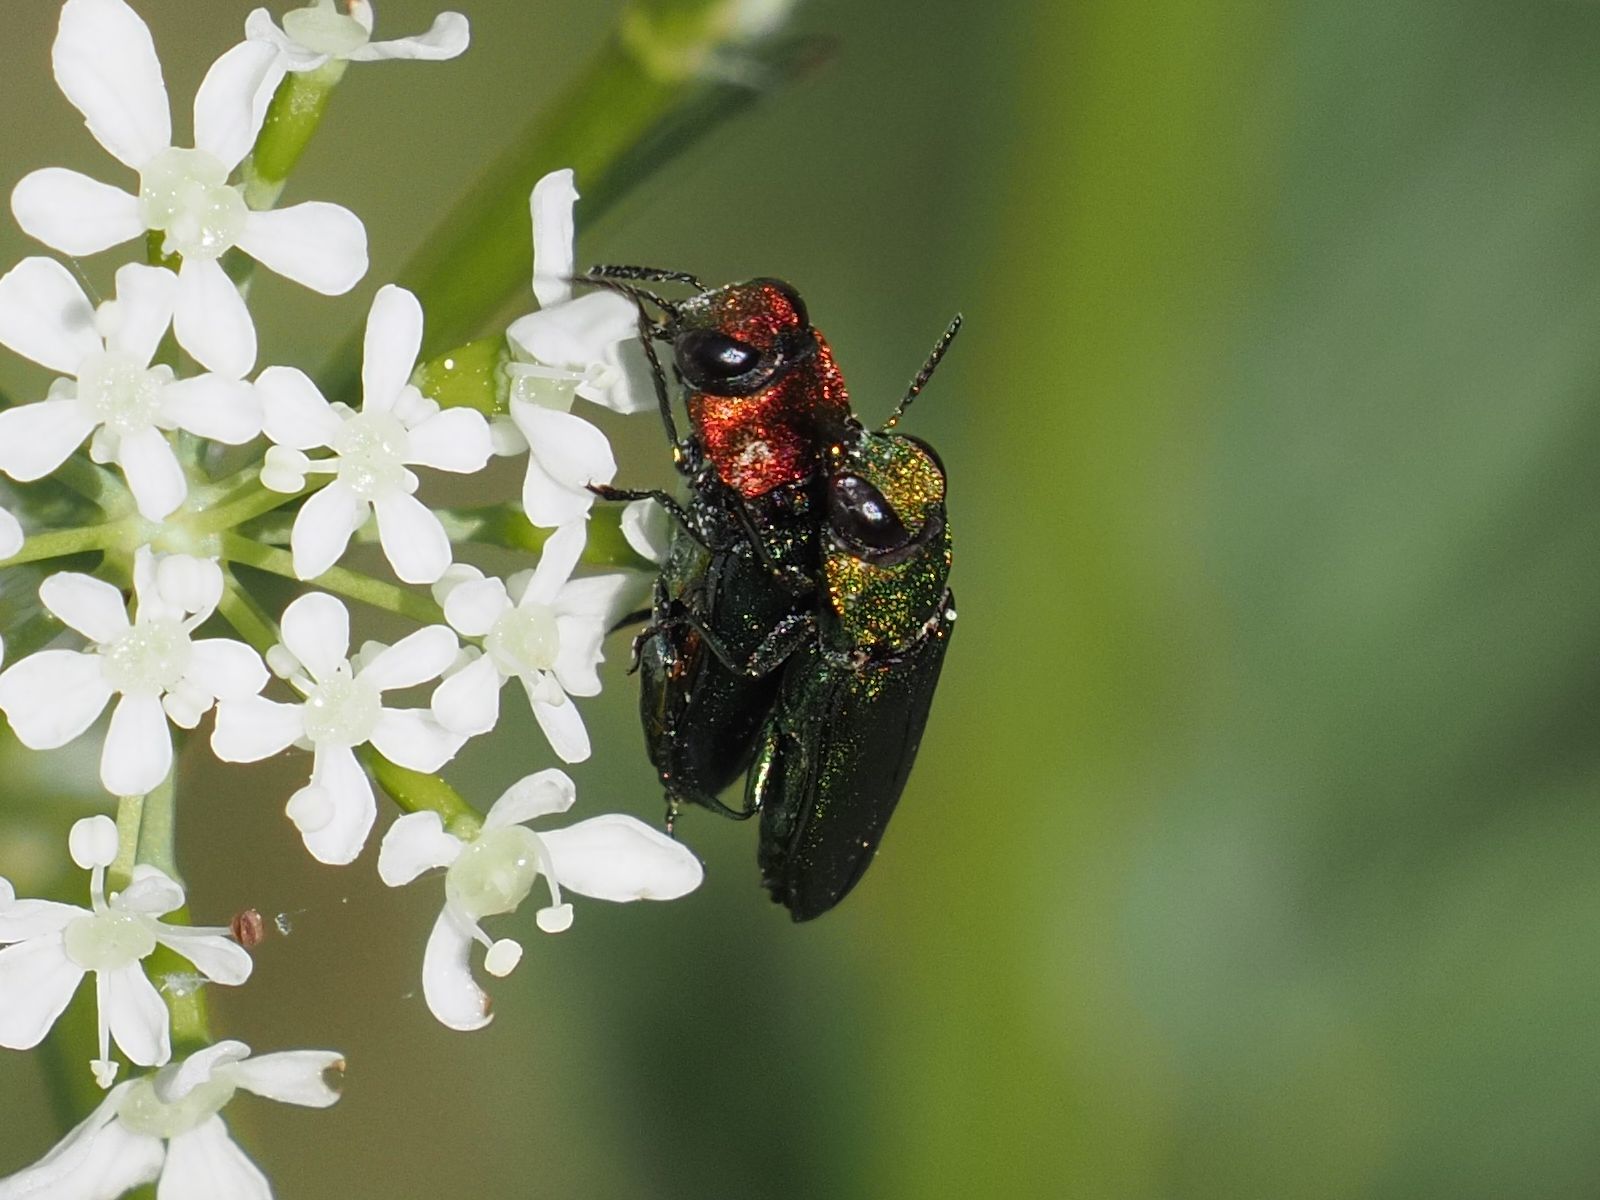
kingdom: Animalia
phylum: Arthropoda
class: Insecta
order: Coleoptera
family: Buprestidae
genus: Anthaxia
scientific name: Anthaxia nitidula
